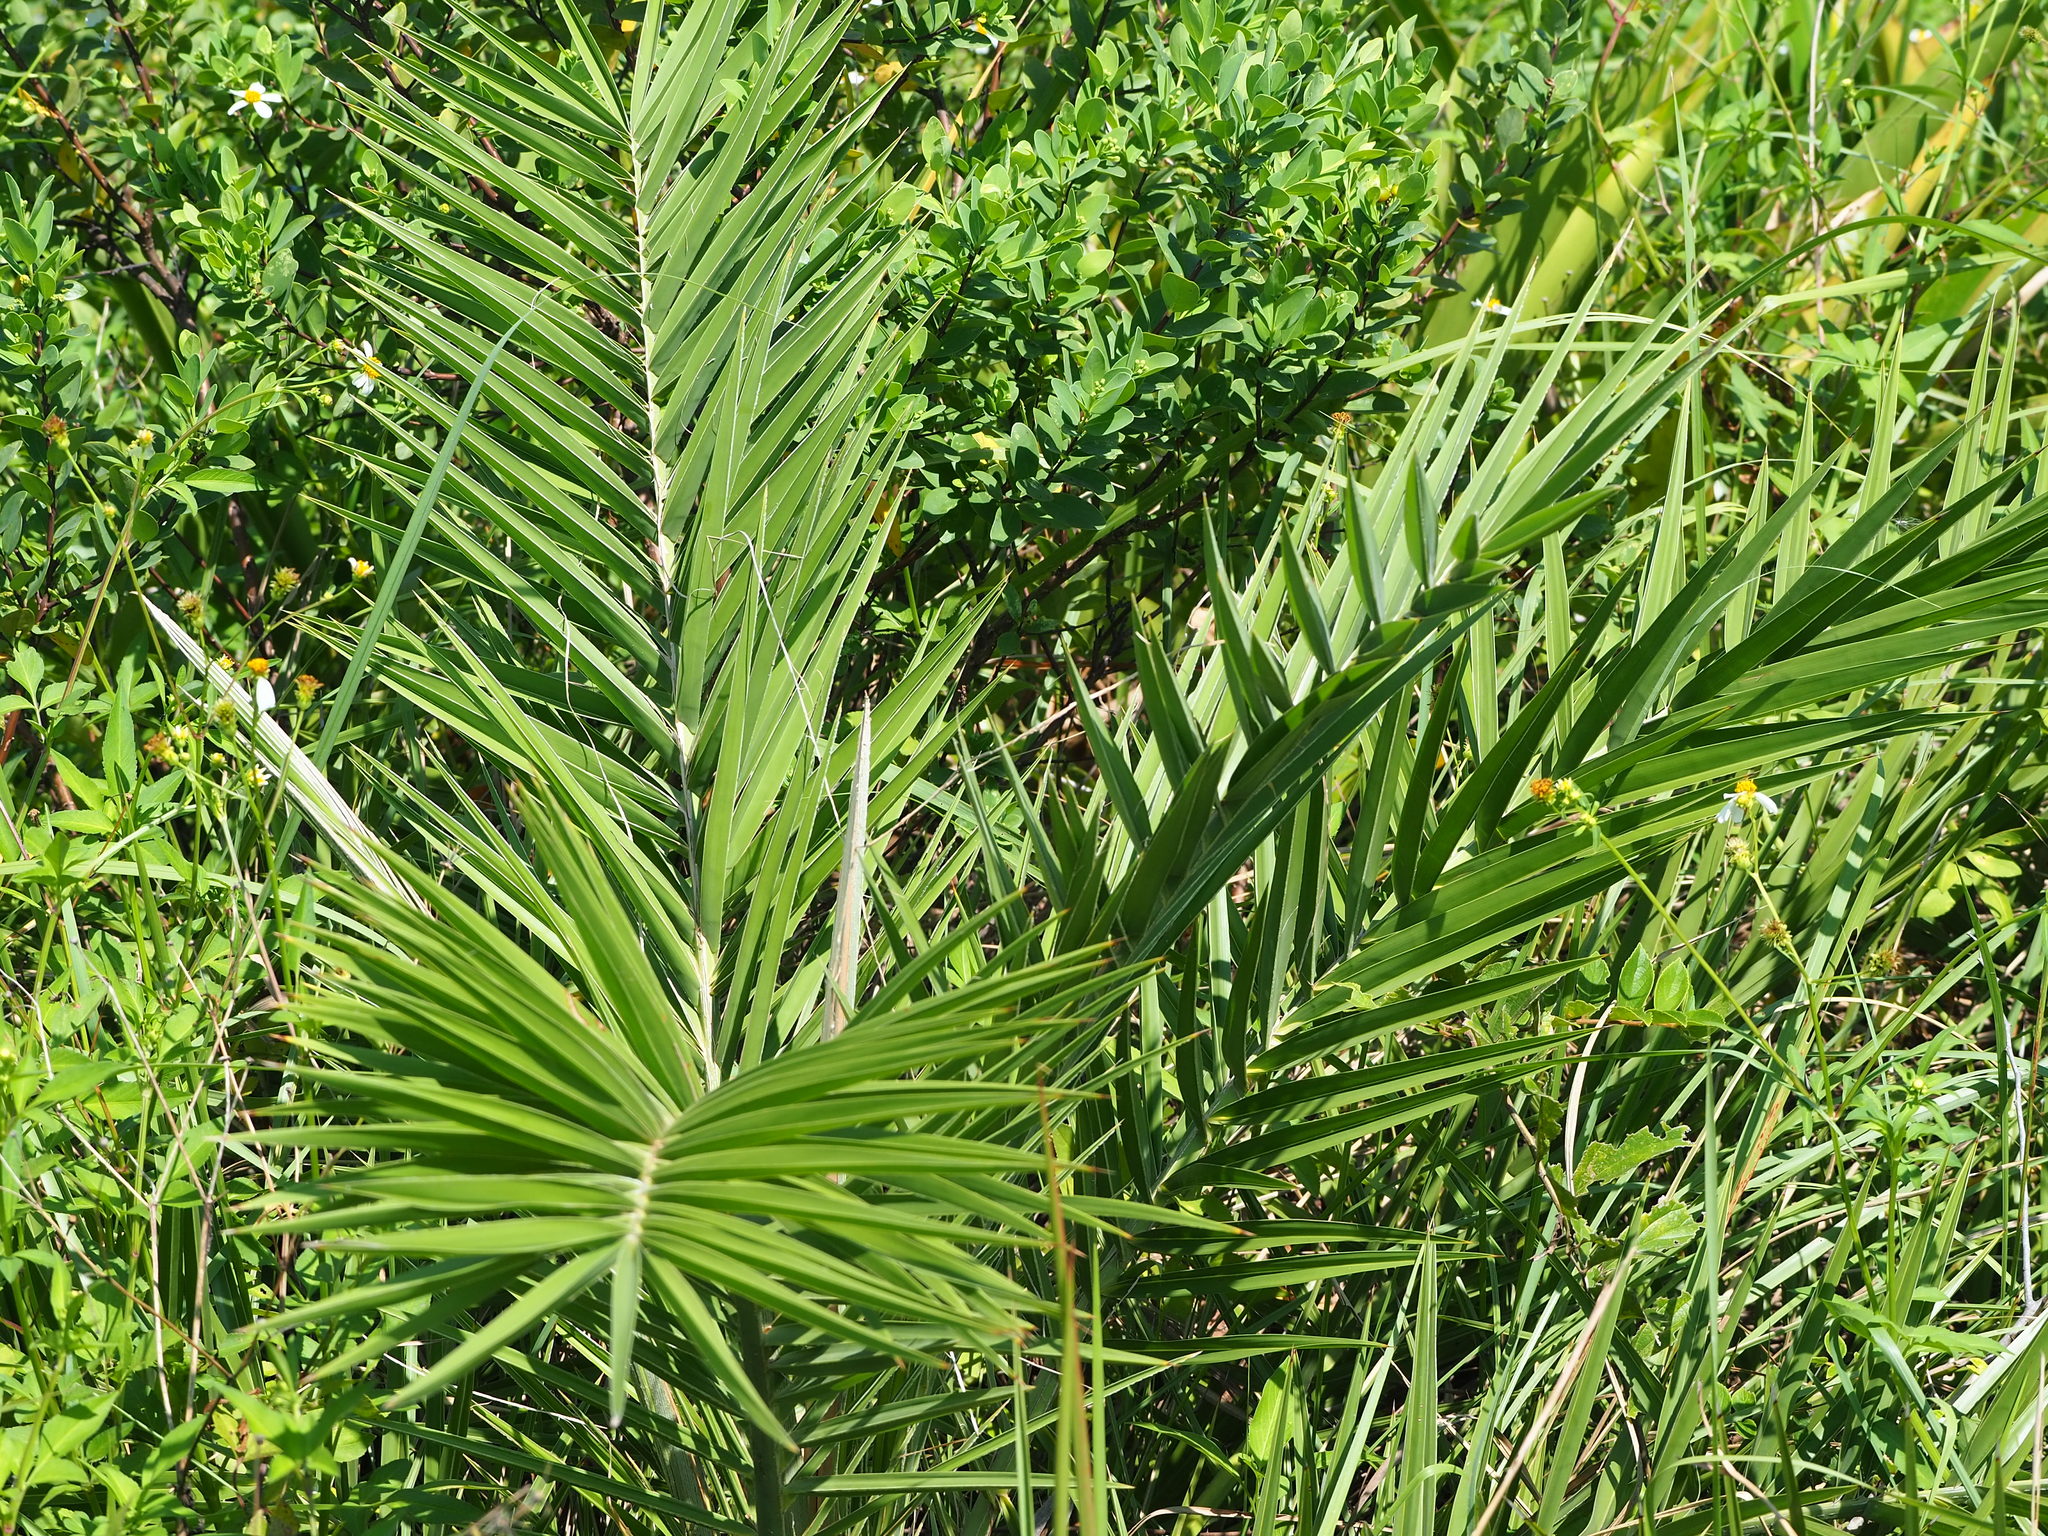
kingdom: Plantae
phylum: Tracheophyta
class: Liliopsida
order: Arecales
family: Arecaceae
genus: Phoenix
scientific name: Phoenix loureiroi
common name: Loureiro's palm
